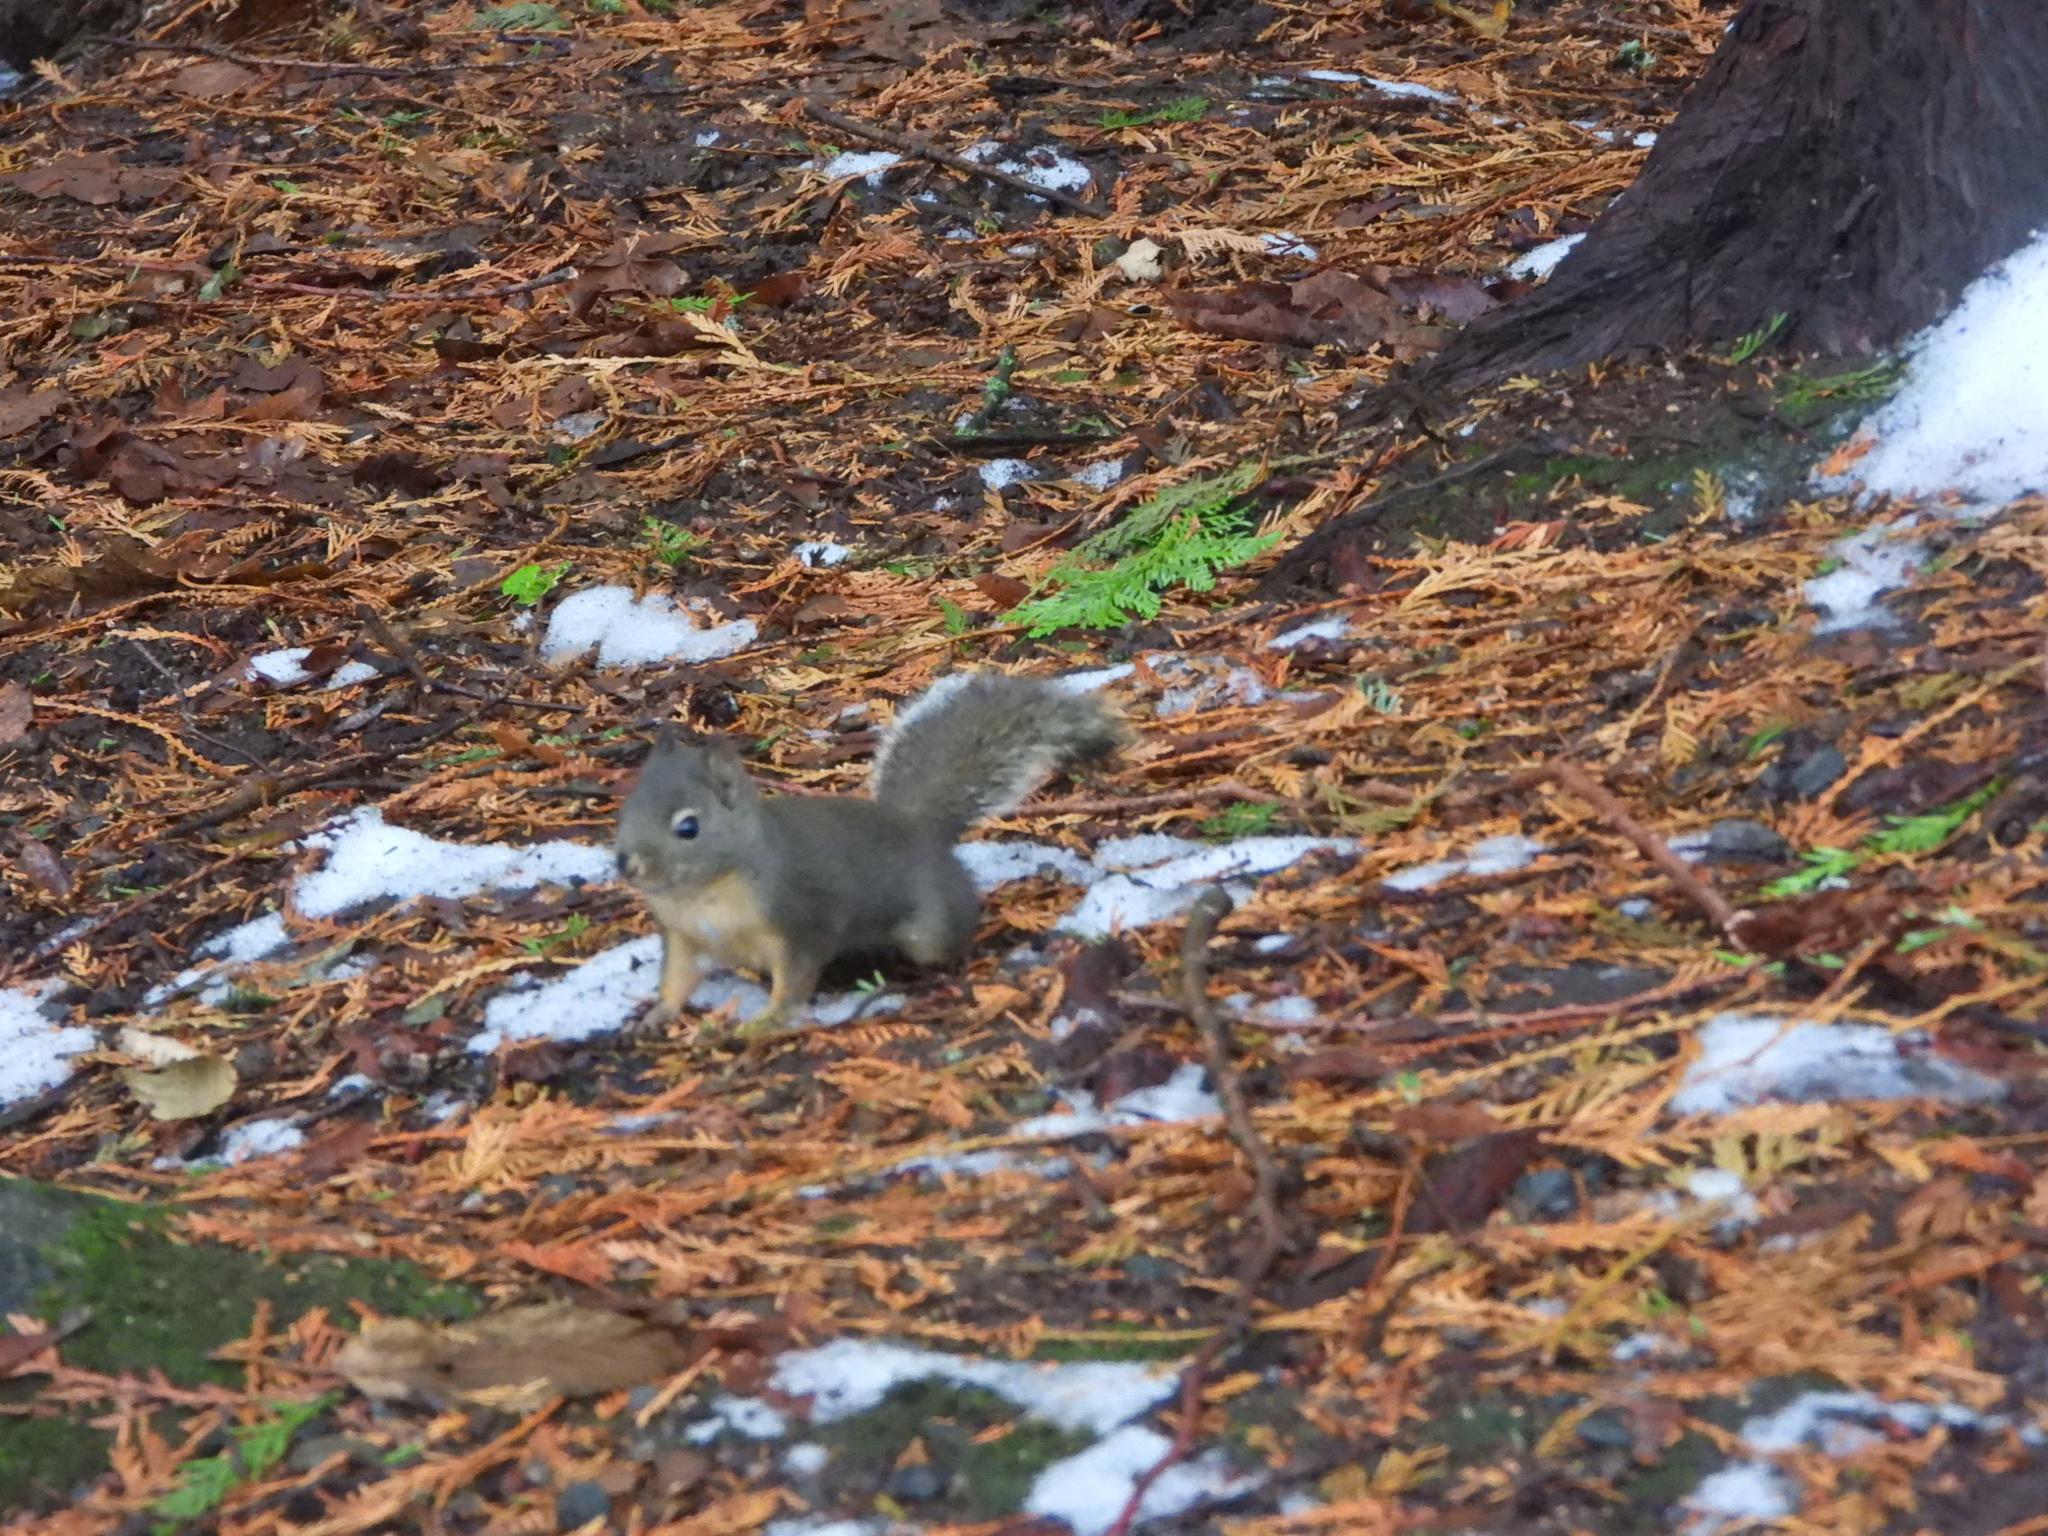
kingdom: Animalia
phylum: Chordata
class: Mammalia
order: Rodentia
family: Sciuridae
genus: Tamiasciurus
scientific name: Tamiasciurus douglasii
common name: Douglas's squirrel
